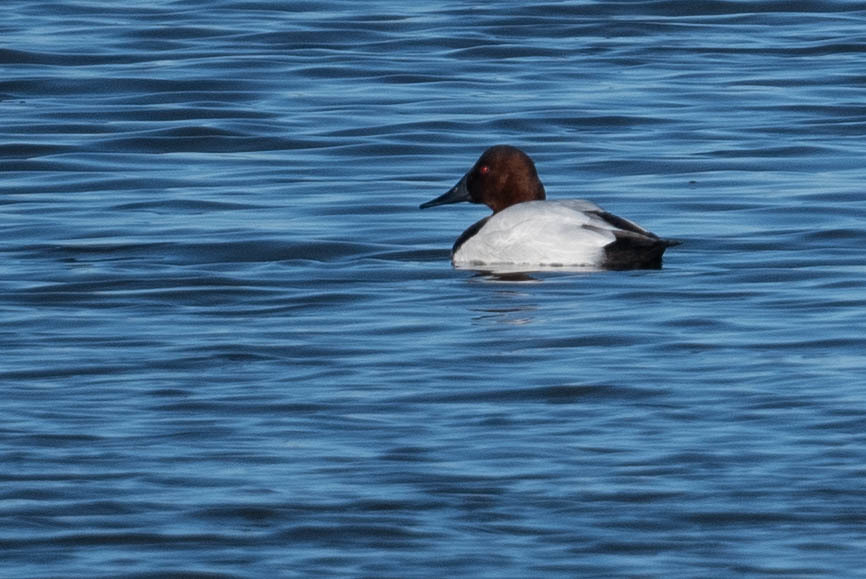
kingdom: Animalia
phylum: Chordata
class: Aves
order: Anseriformes
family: Anatidae
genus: Aythya
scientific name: Aythya valisineria
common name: Canvasback
